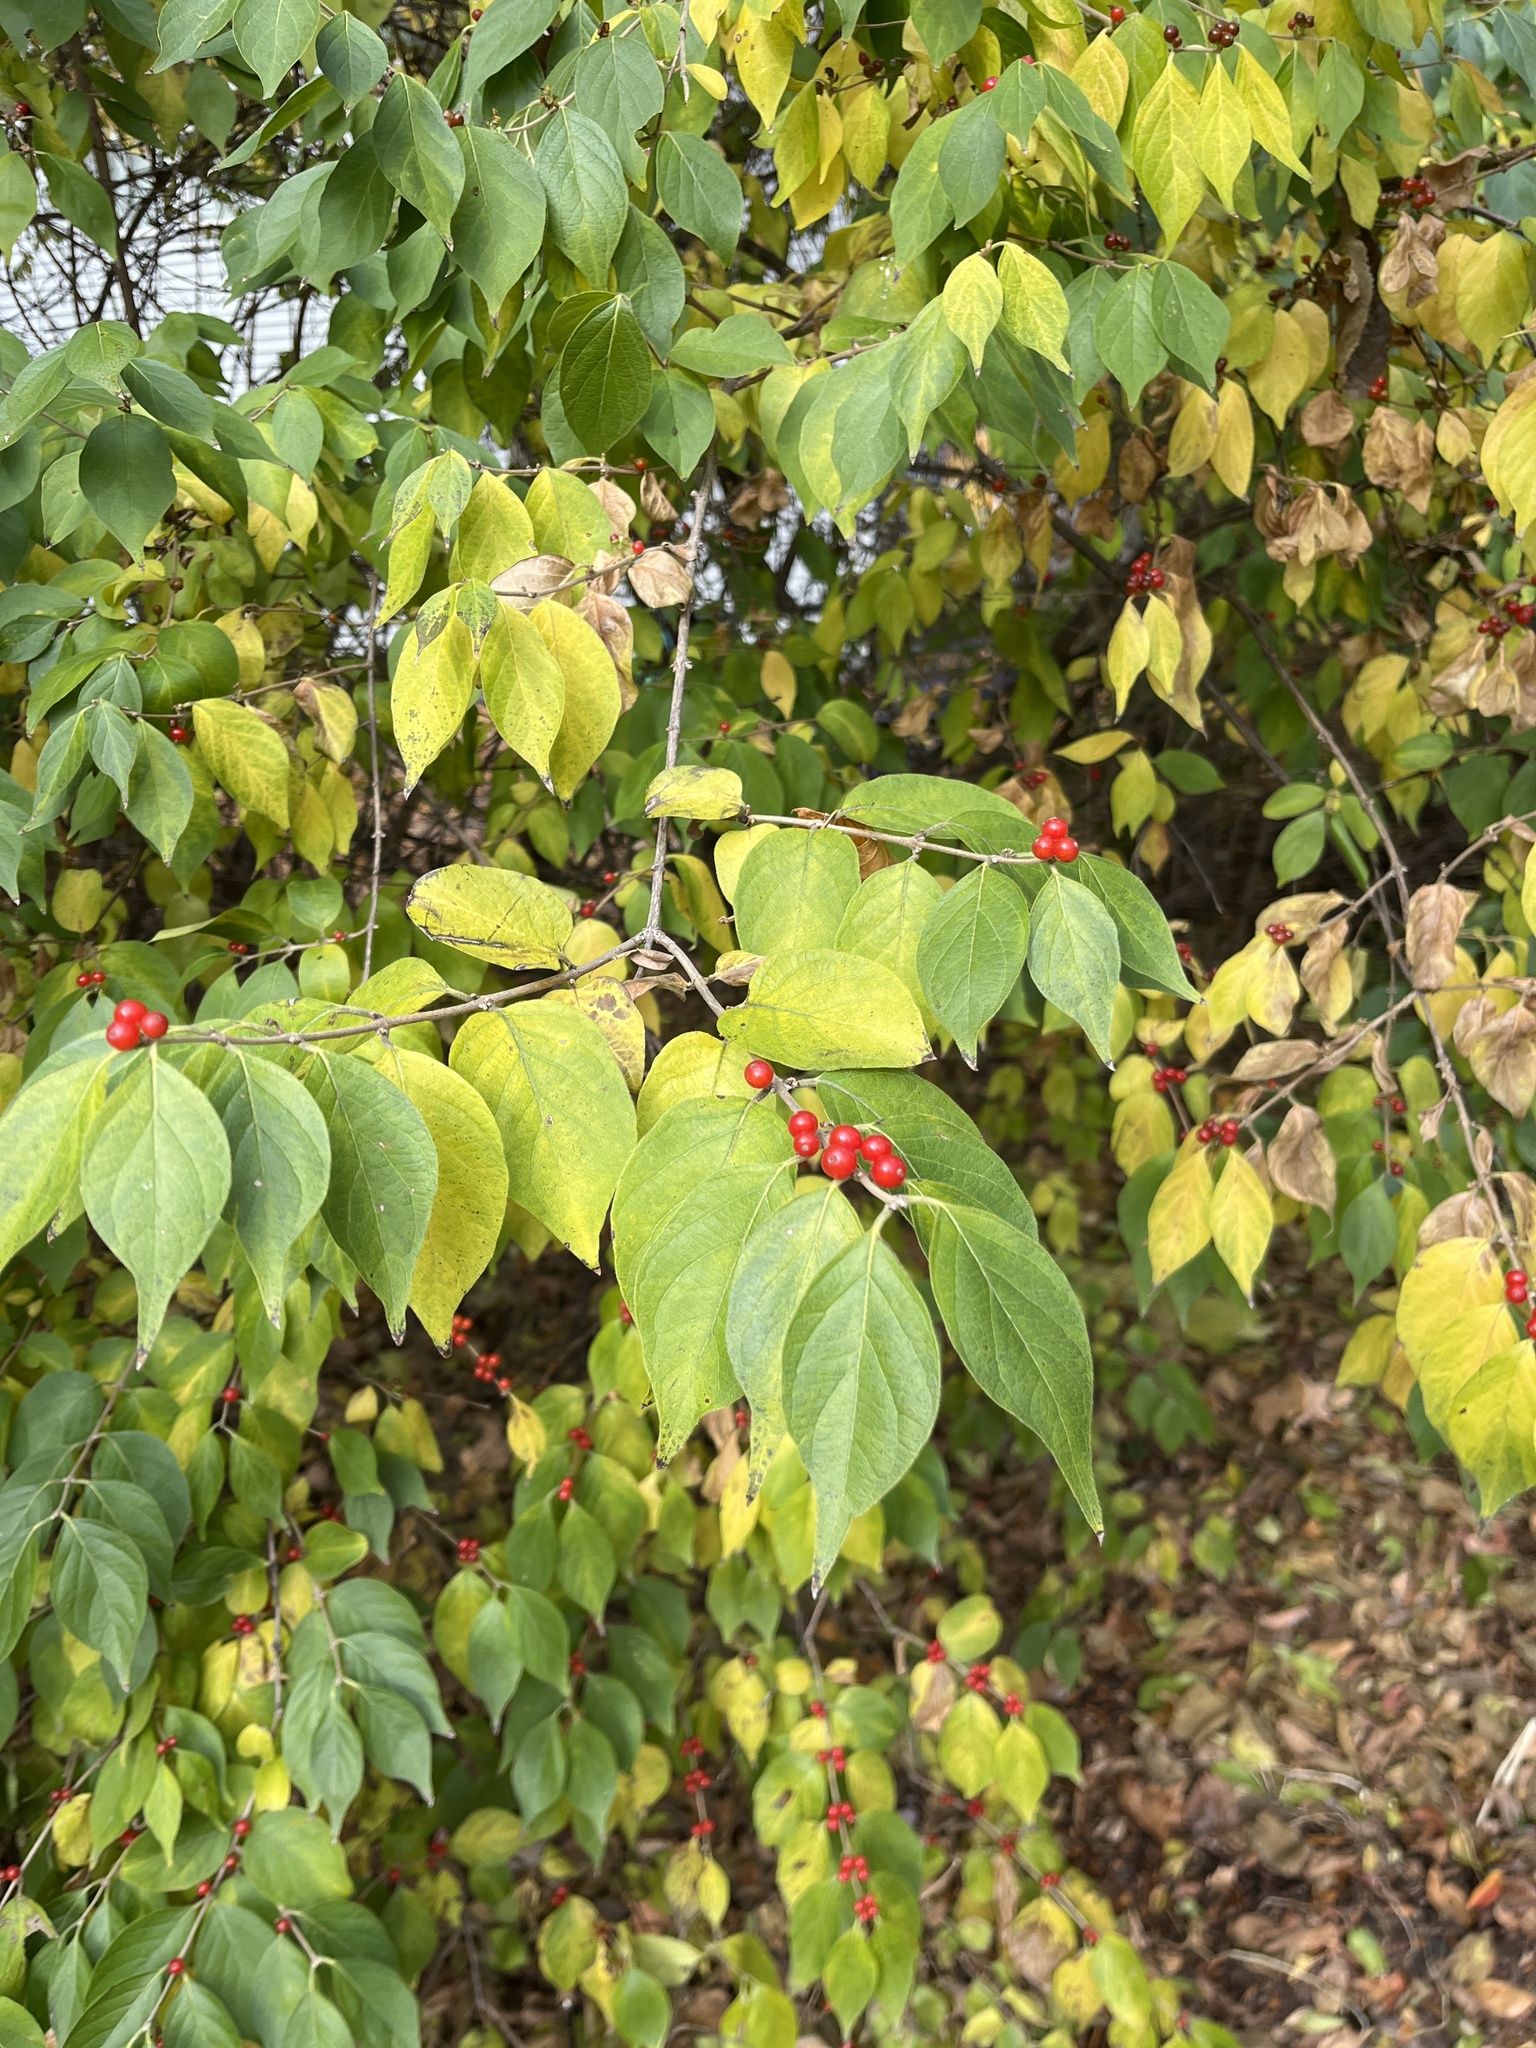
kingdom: Plantae
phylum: Tracheophyta
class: Magnoliopsida
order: Dipsacales
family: Caprifoliaceae
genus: Lonicera
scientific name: Lonicera maackii
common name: Amur honeysuckle
